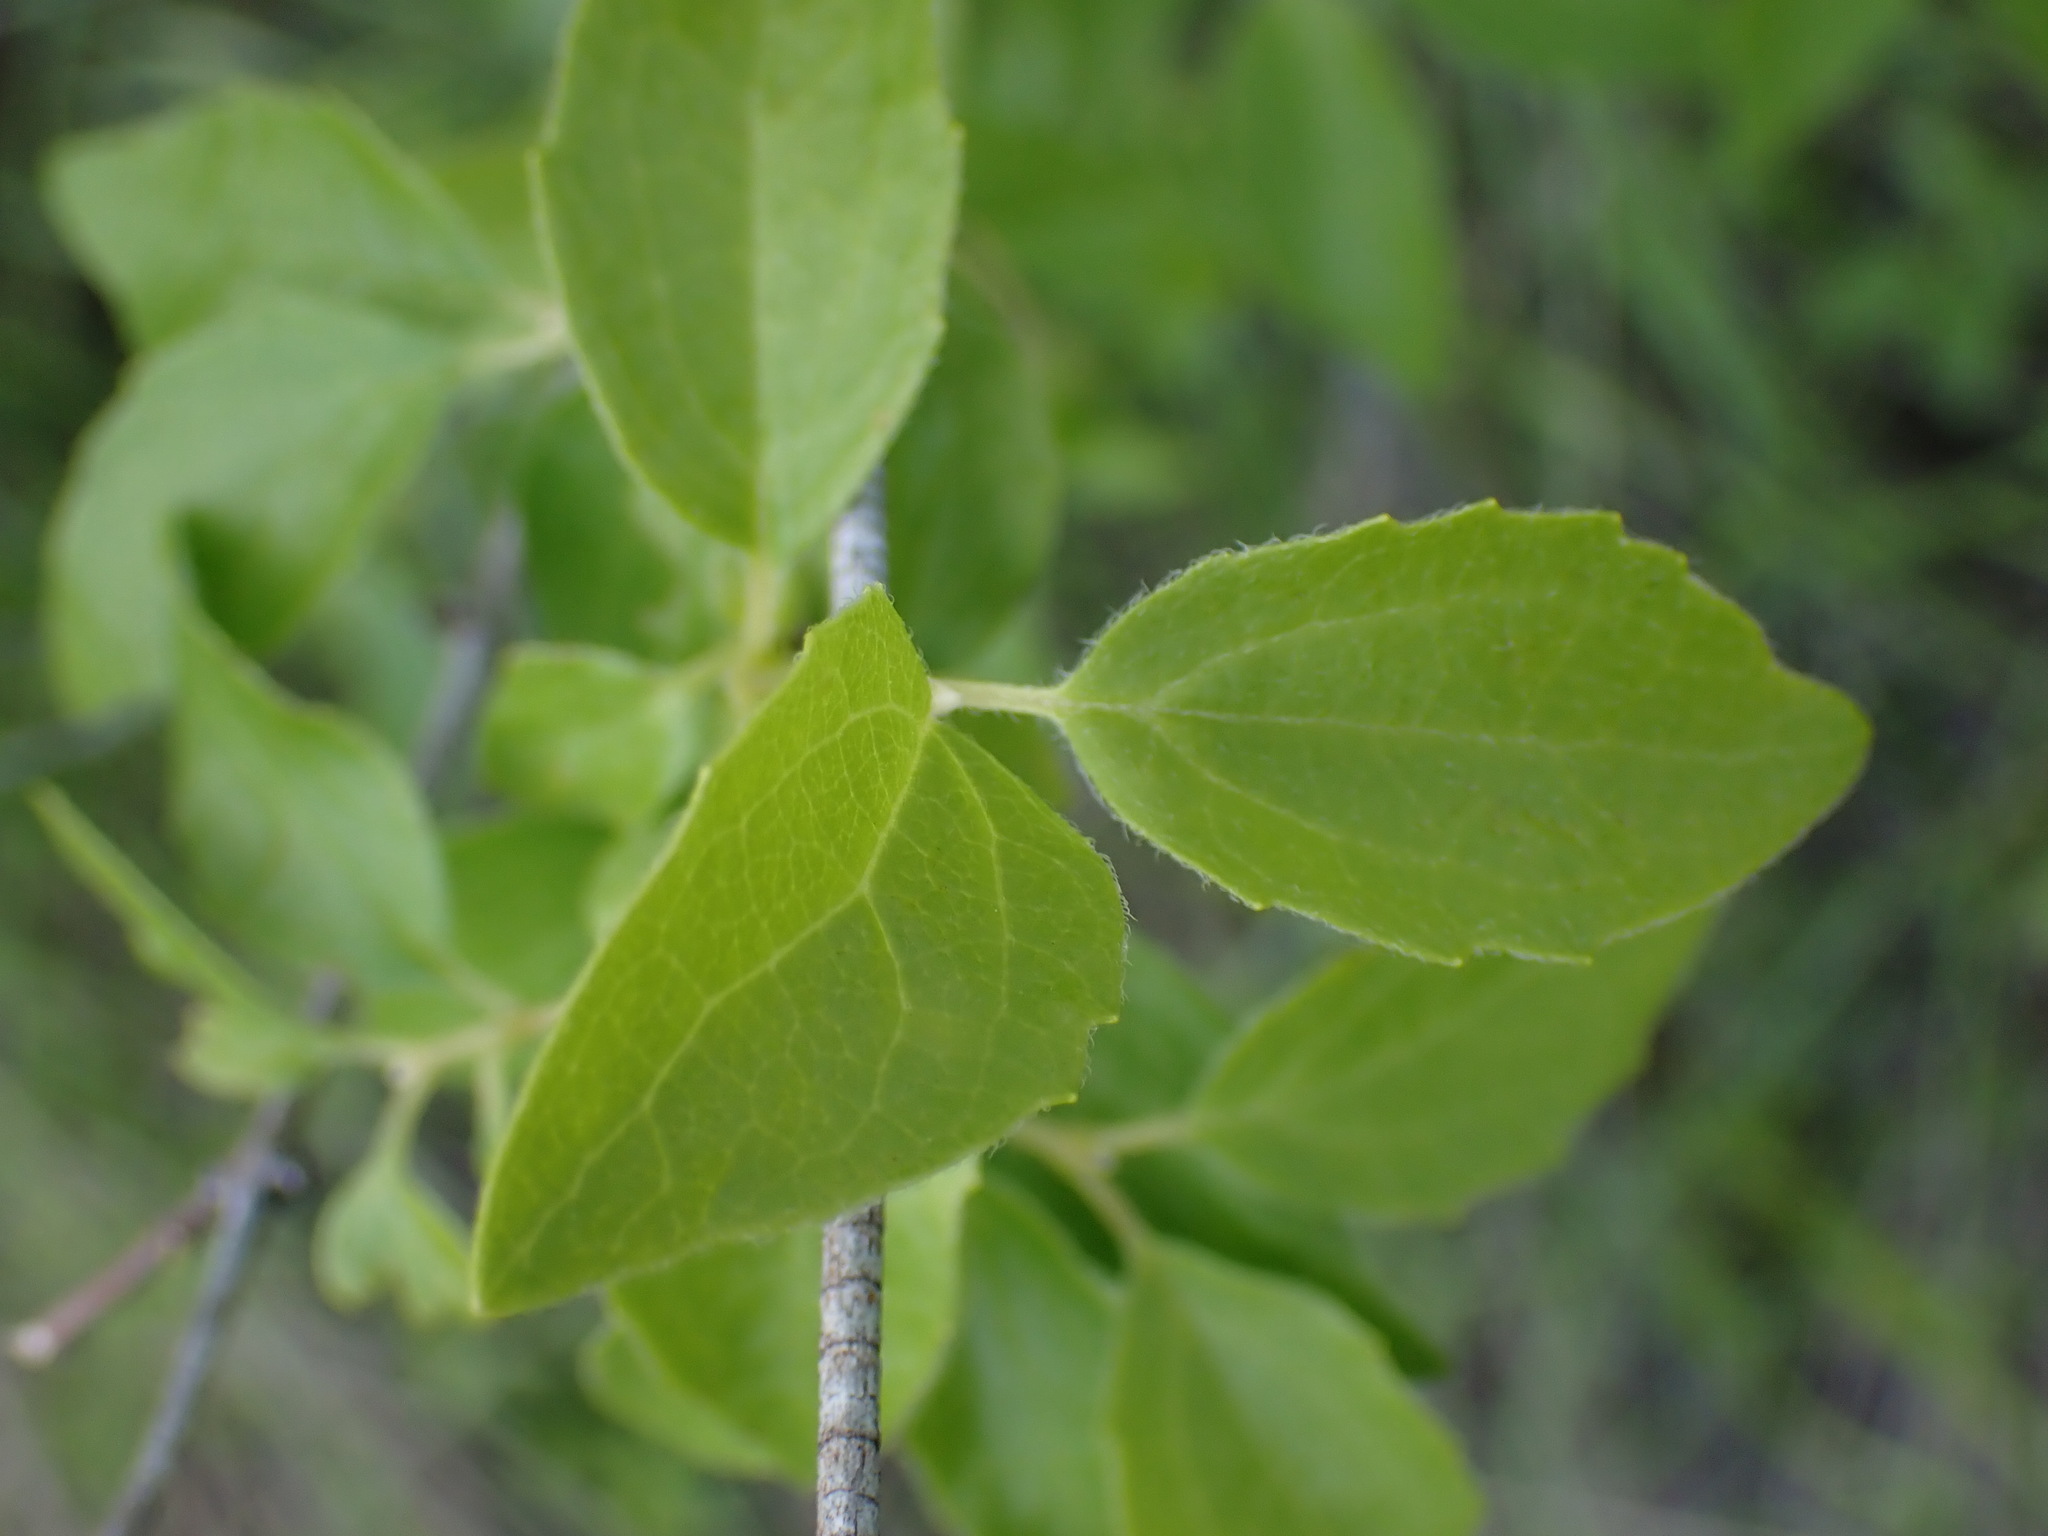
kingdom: Plantae
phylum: Tracheophyta
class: Magnoliopsida
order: Cornales
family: Hydrangeaceae
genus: Philadelphus
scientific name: Philadelphus lewisii
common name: Lewis's mock orange
